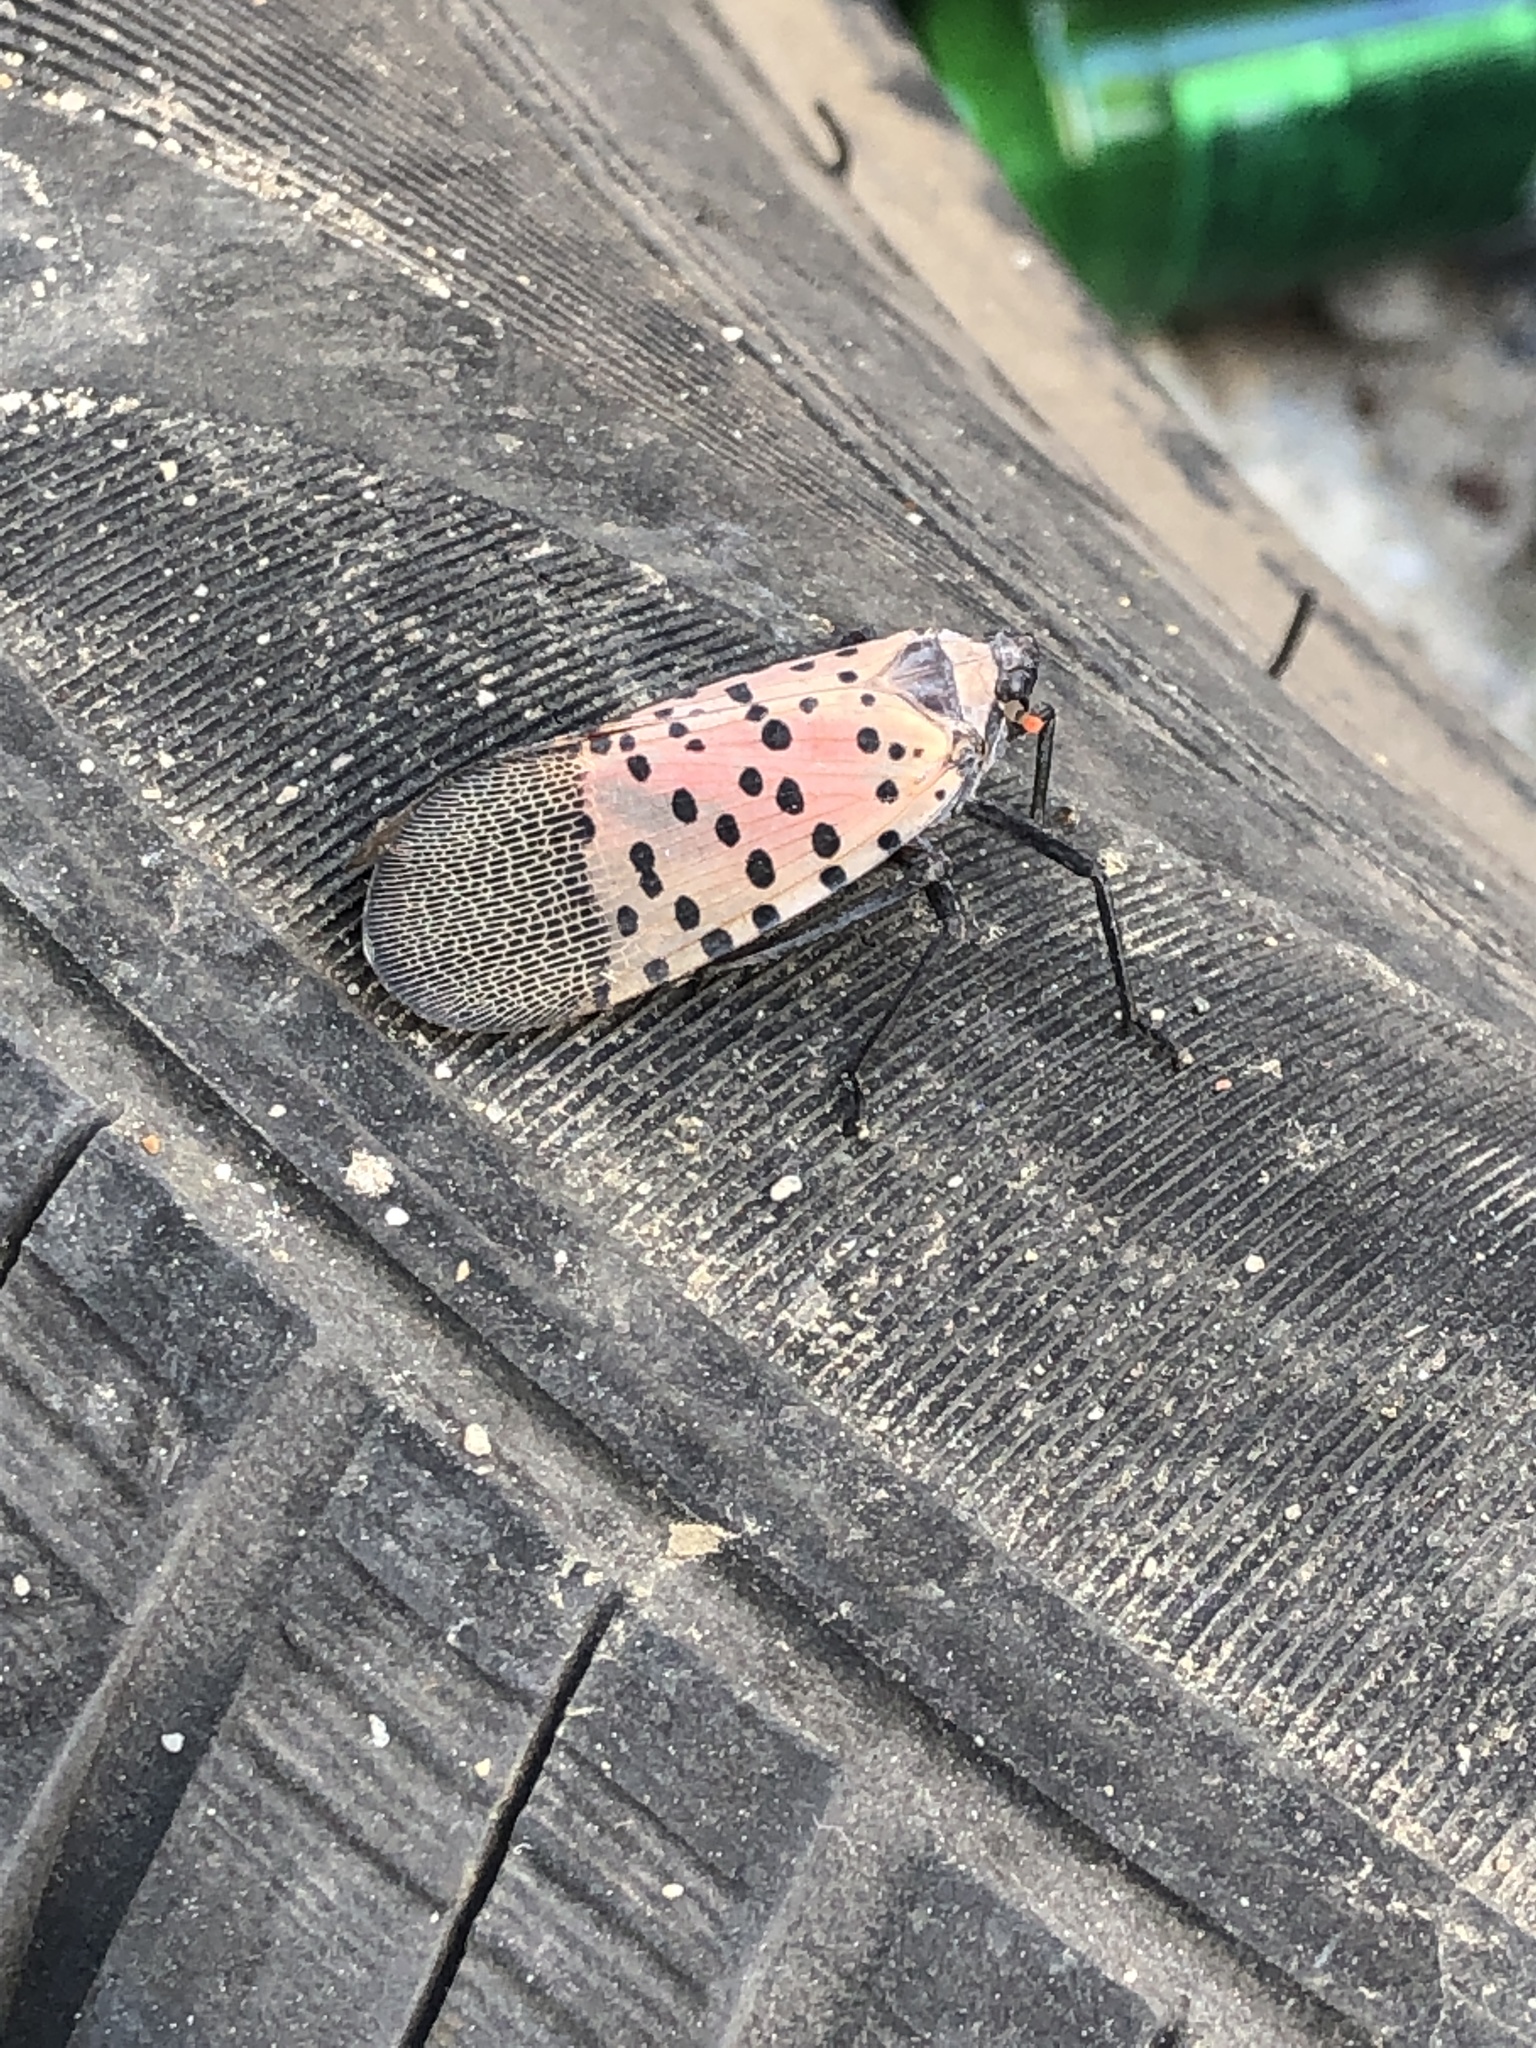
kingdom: Animalia
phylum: Arthropoda
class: Insecta
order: Hemiptera
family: Fulgoridae
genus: Lycorma
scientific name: Lycorma delicatula
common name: Spotted lanternfly
